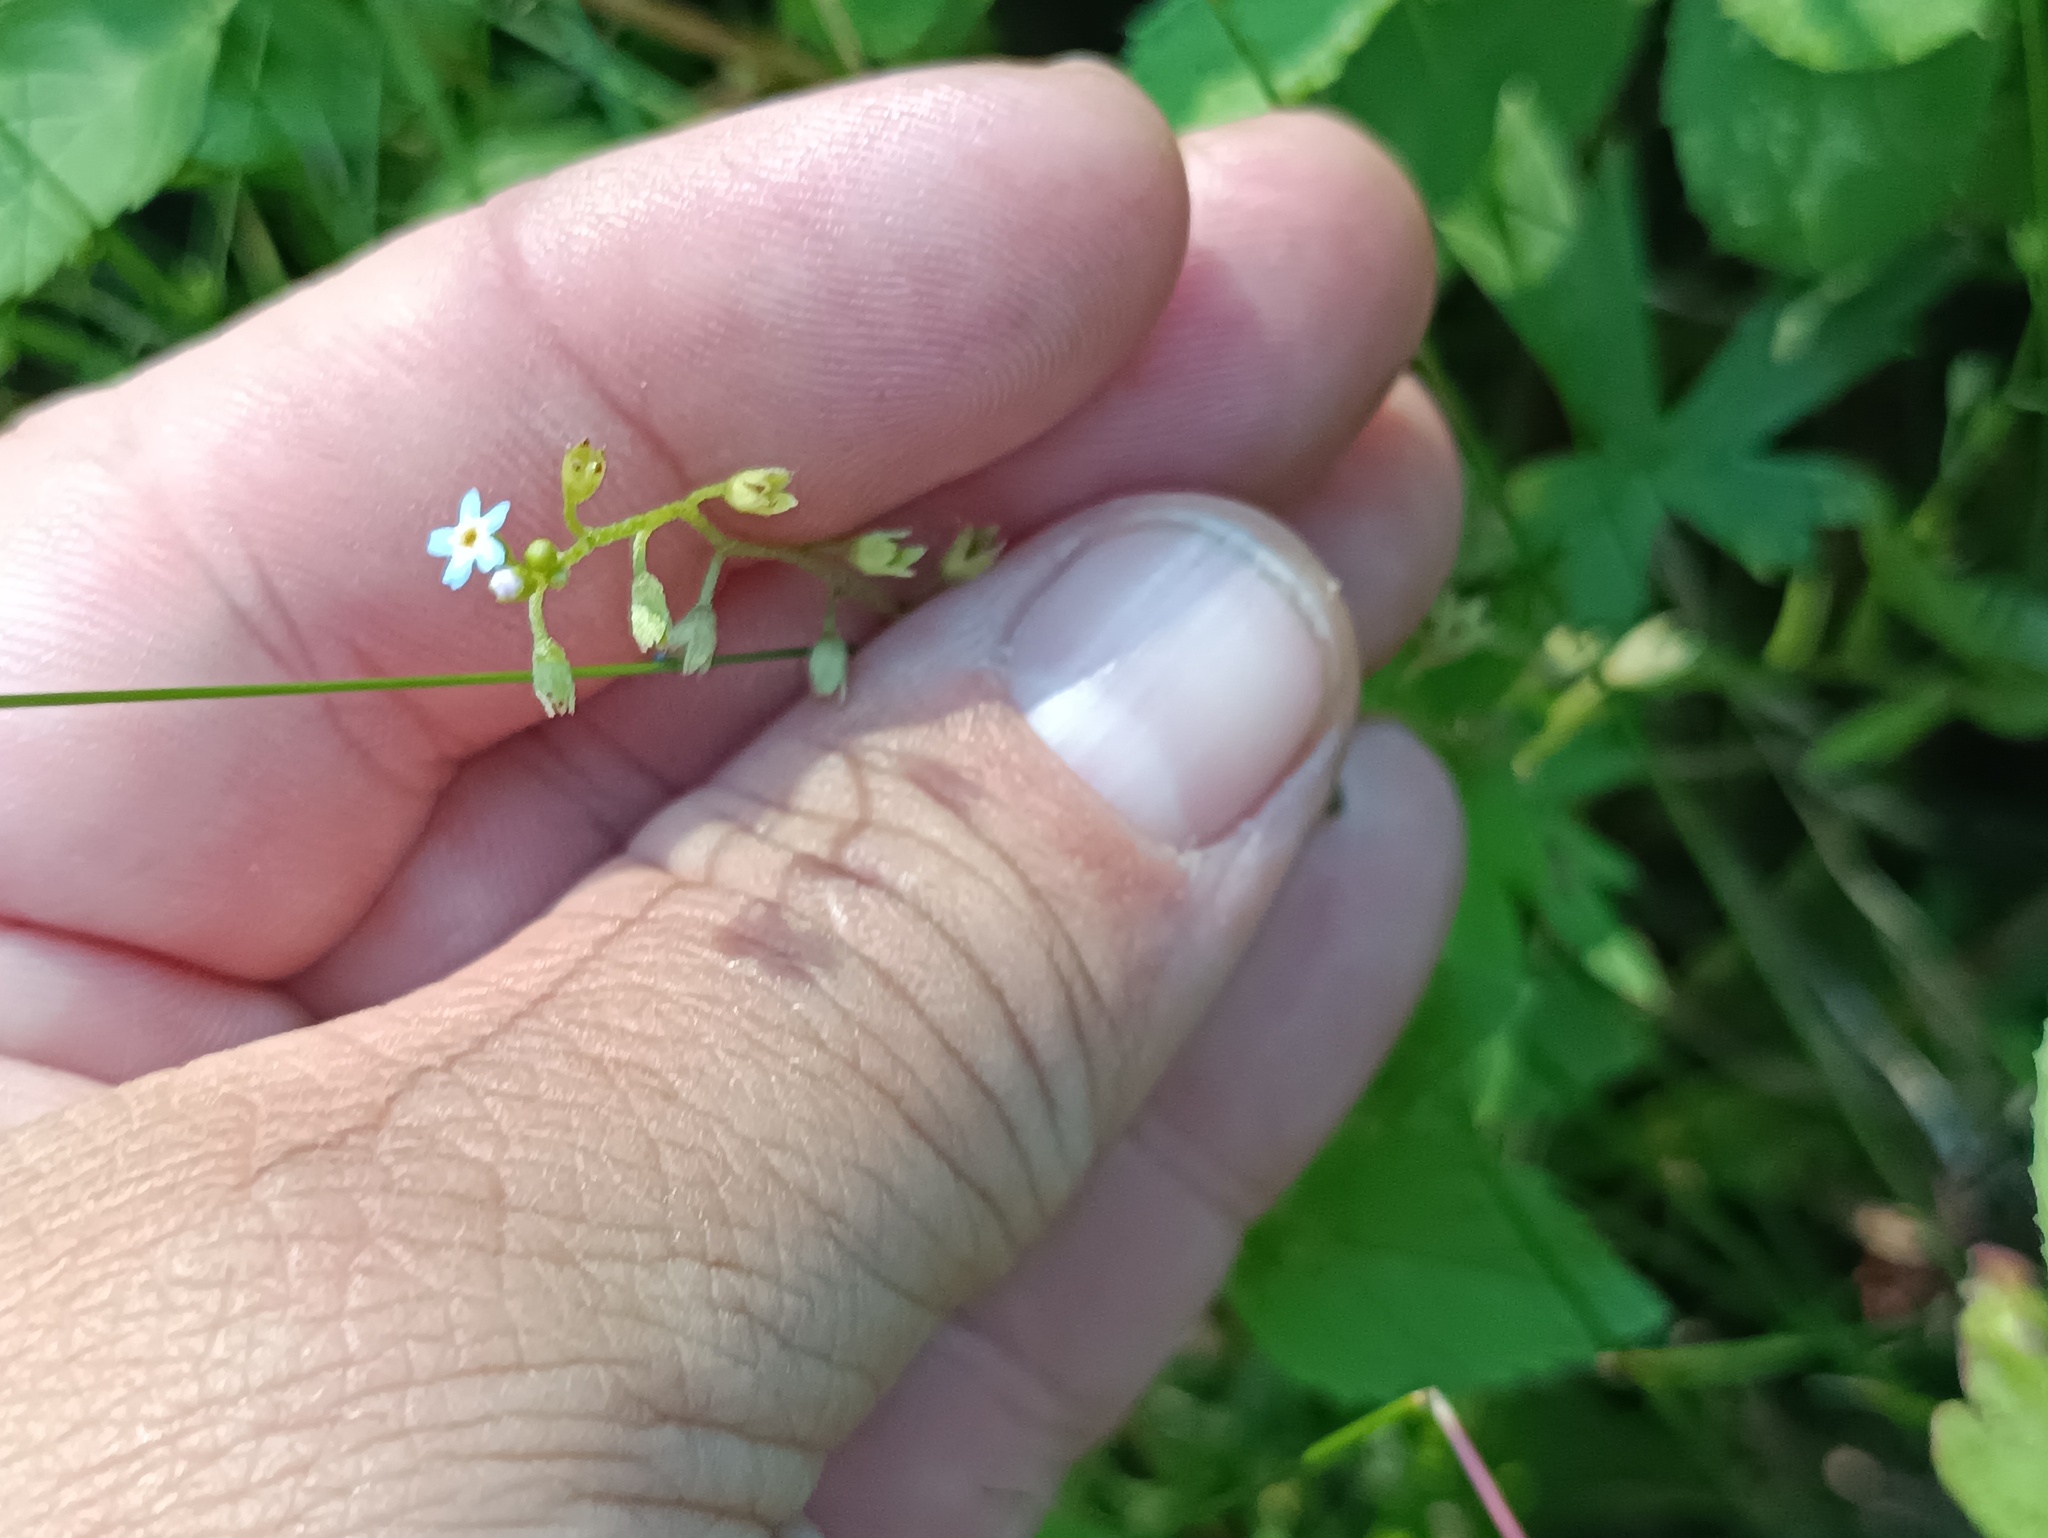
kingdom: Plantae
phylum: Tracheophyta
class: Magnoliopsida
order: Boraginales
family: Boraginaceae
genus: Myosotis
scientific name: Myosotis laxa
